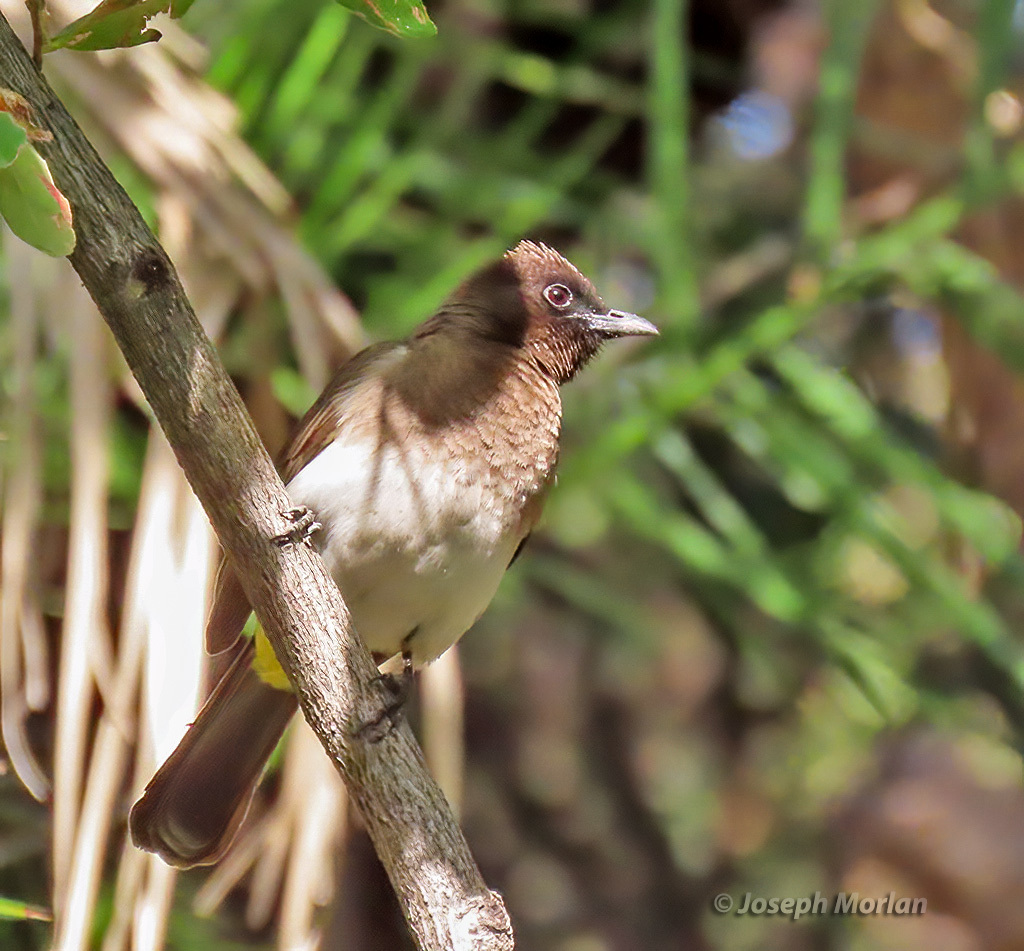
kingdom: Animalia
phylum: Chordata
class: Aves
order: Passeriformes
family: Pycnonotidae
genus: Pycnonotus
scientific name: Pycnonotus barbatus
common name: Common bulbul
